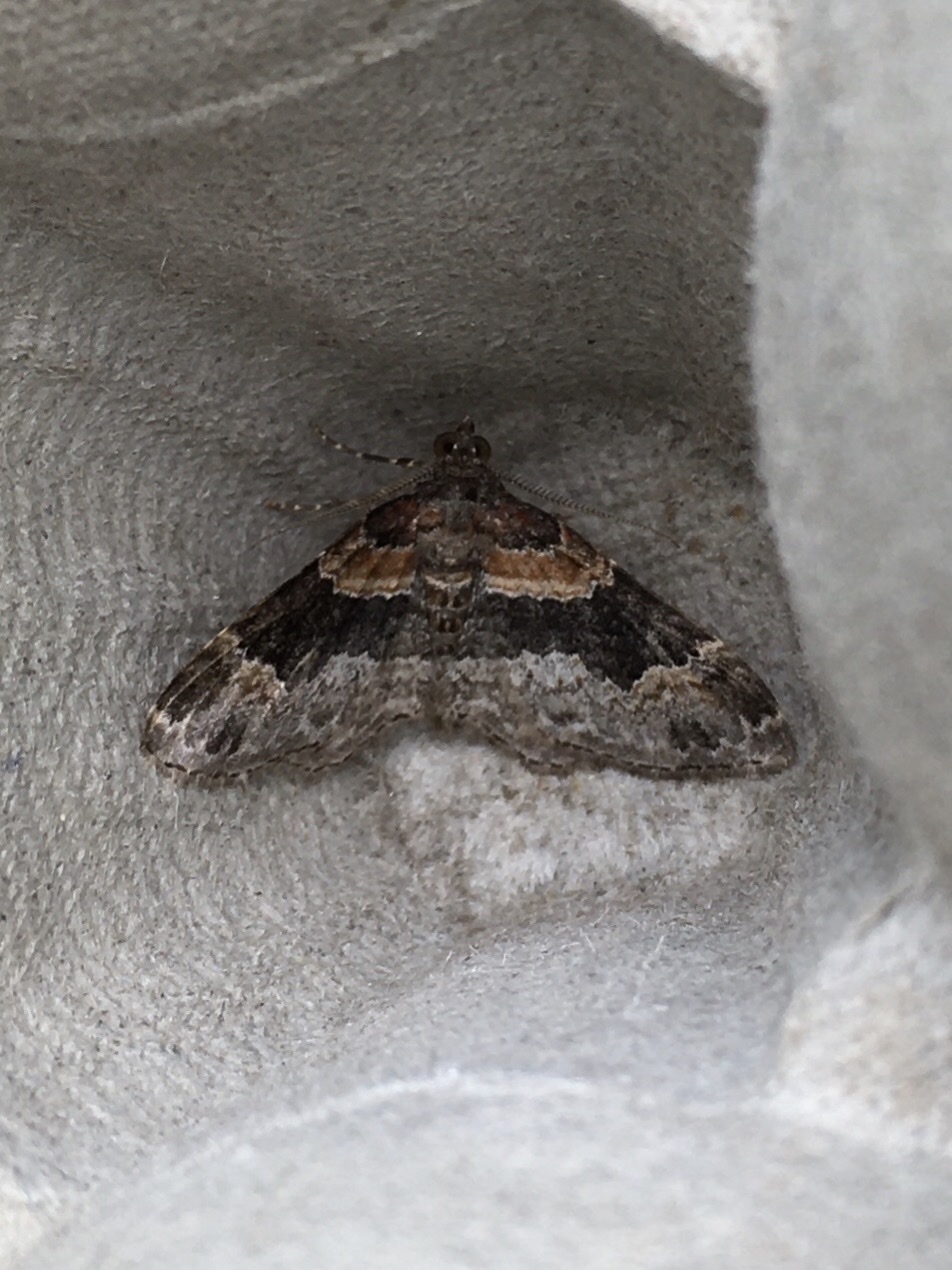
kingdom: Animalia
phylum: Arthropoda
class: Insecta
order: Lepidoptera
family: Geometridae
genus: Xanthorhoe
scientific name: Xanthorhoe ferrugata
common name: Dark-barred twin-spot carpet
